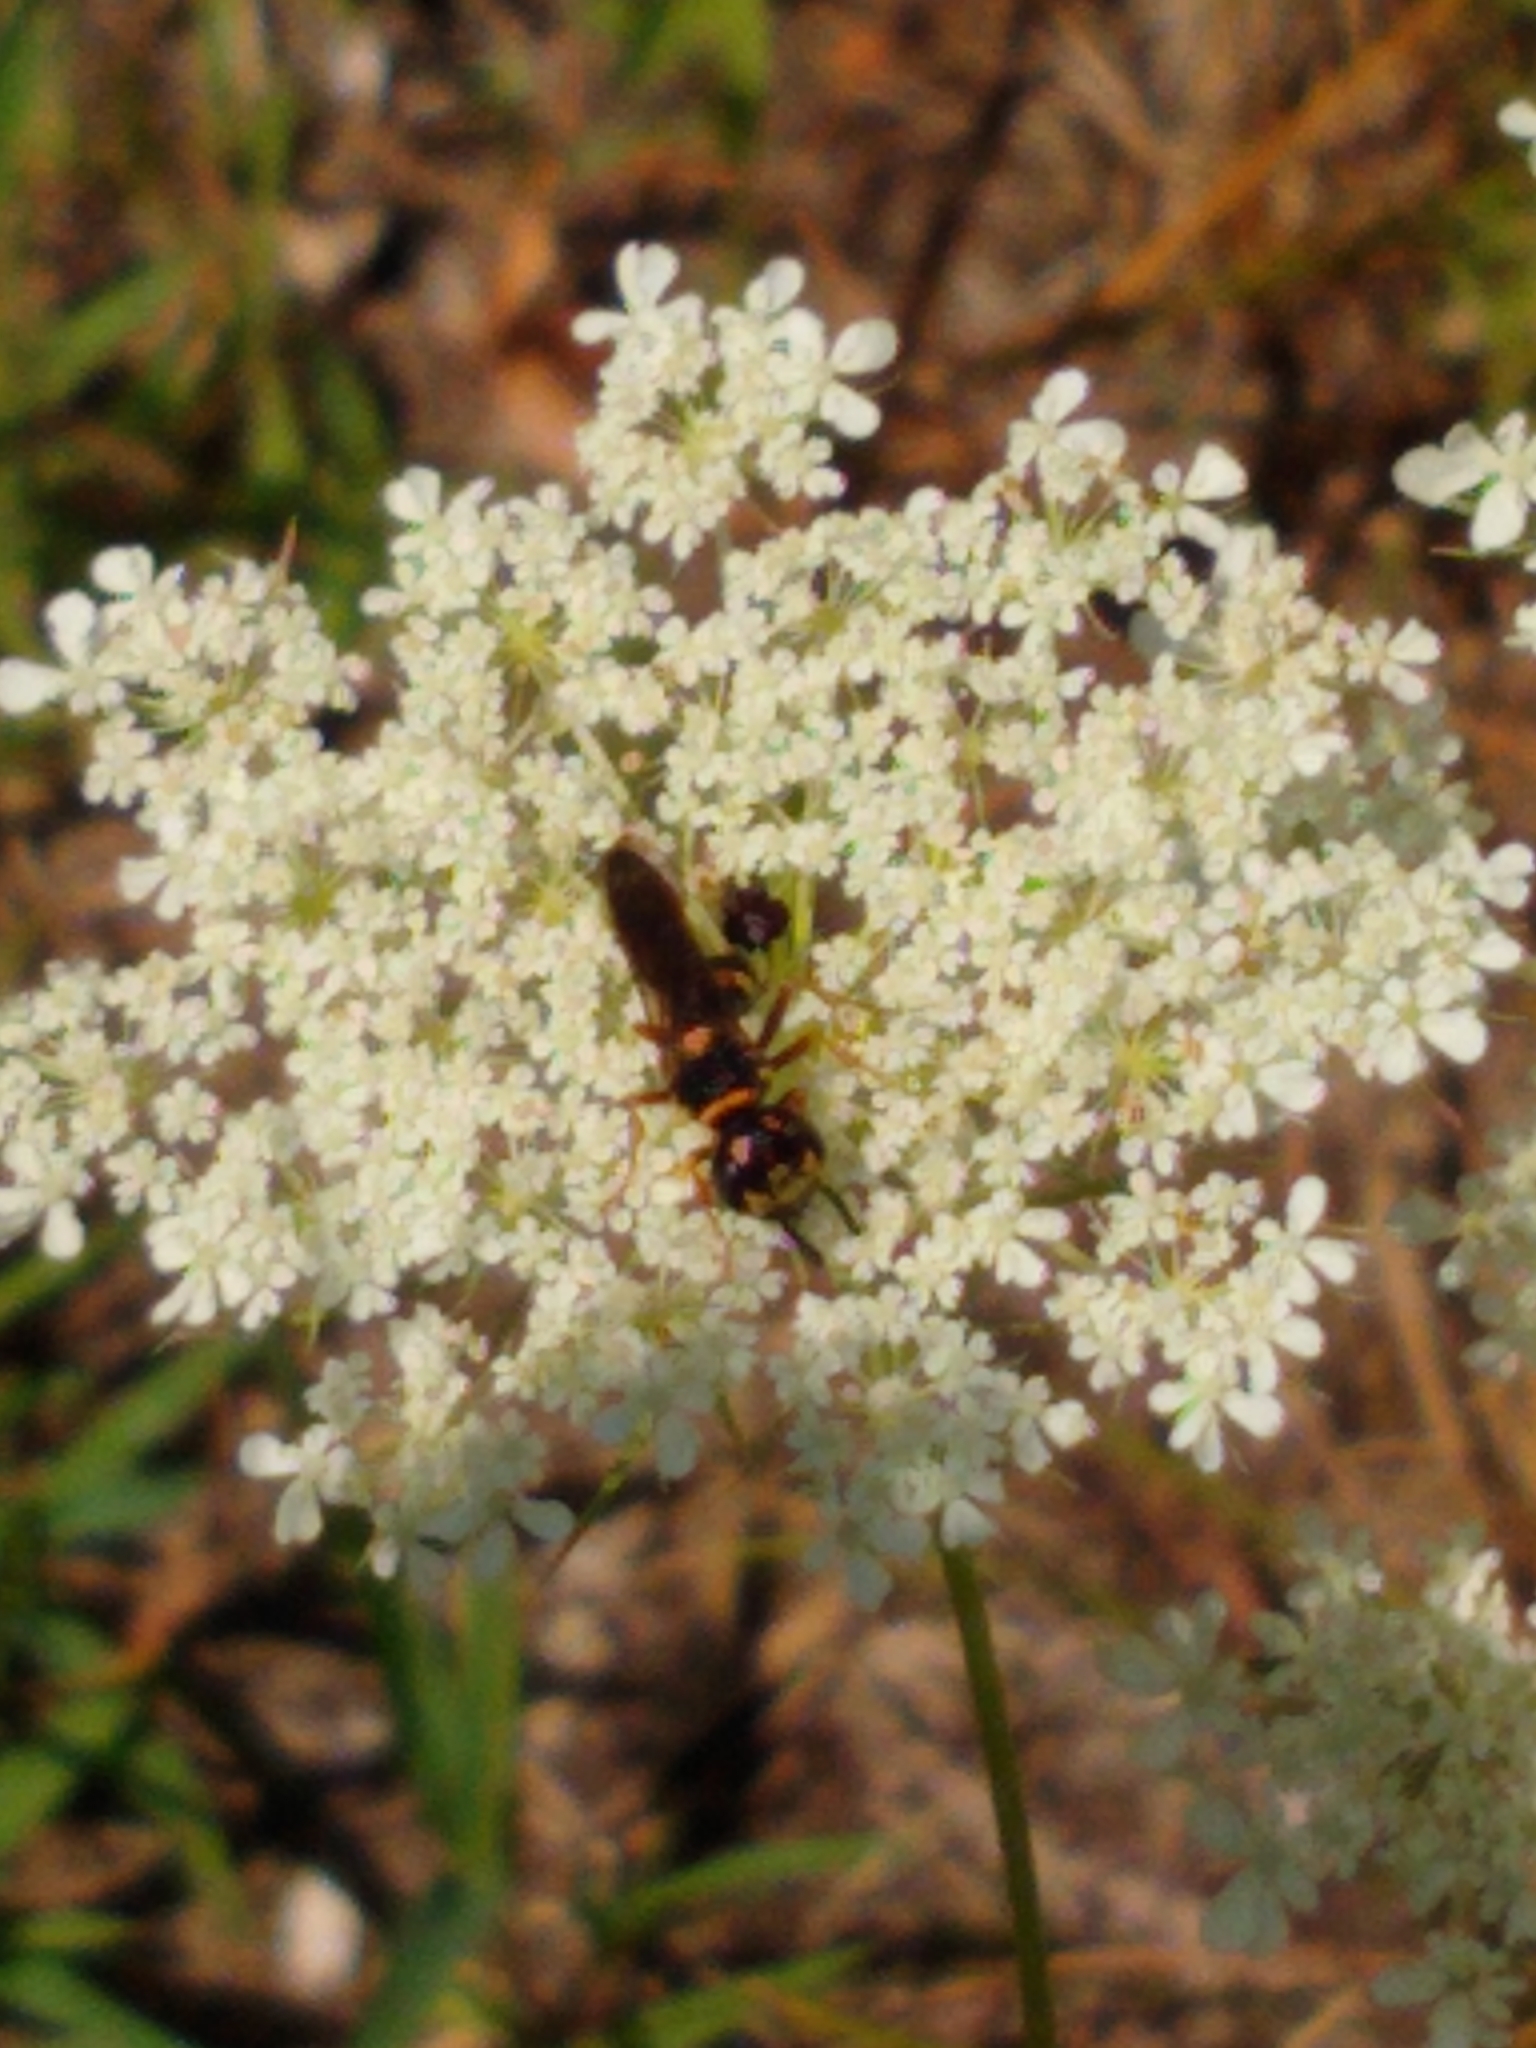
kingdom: Animalia
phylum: Arthropoda
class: Insecta
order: Hymenoptera
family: Crabronidae
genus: Philanthus
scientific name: Philanthus gibbosus
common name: Humped beewolf
